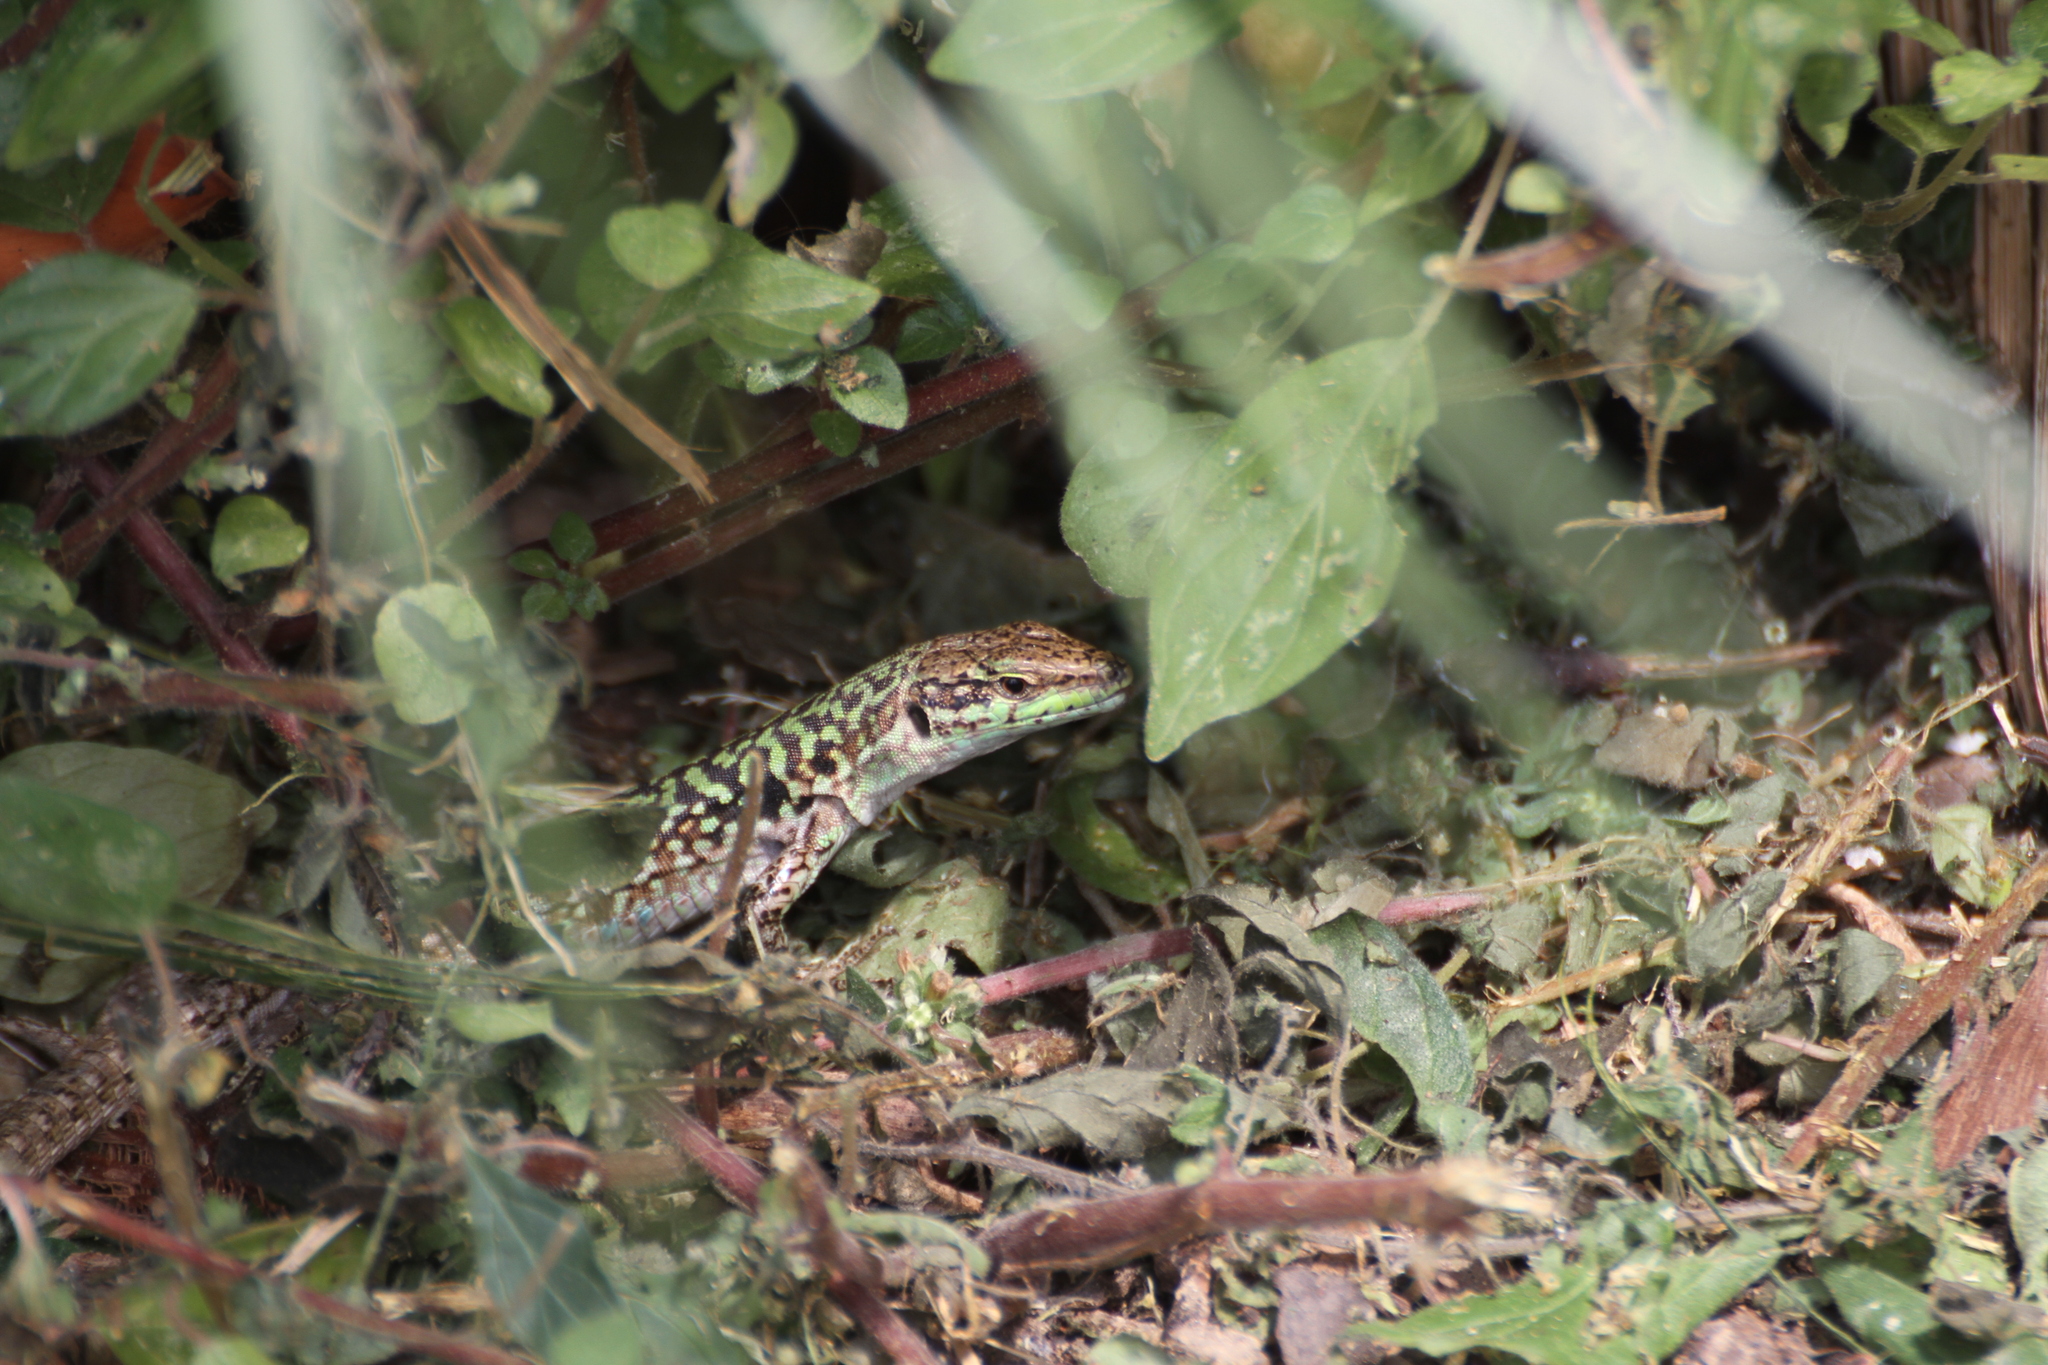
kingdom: Animalia
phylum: Chordata
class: Squamata
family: Lacertidae
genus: Podarcis
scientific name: Podarcis siculus
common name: Italian wall lizard
